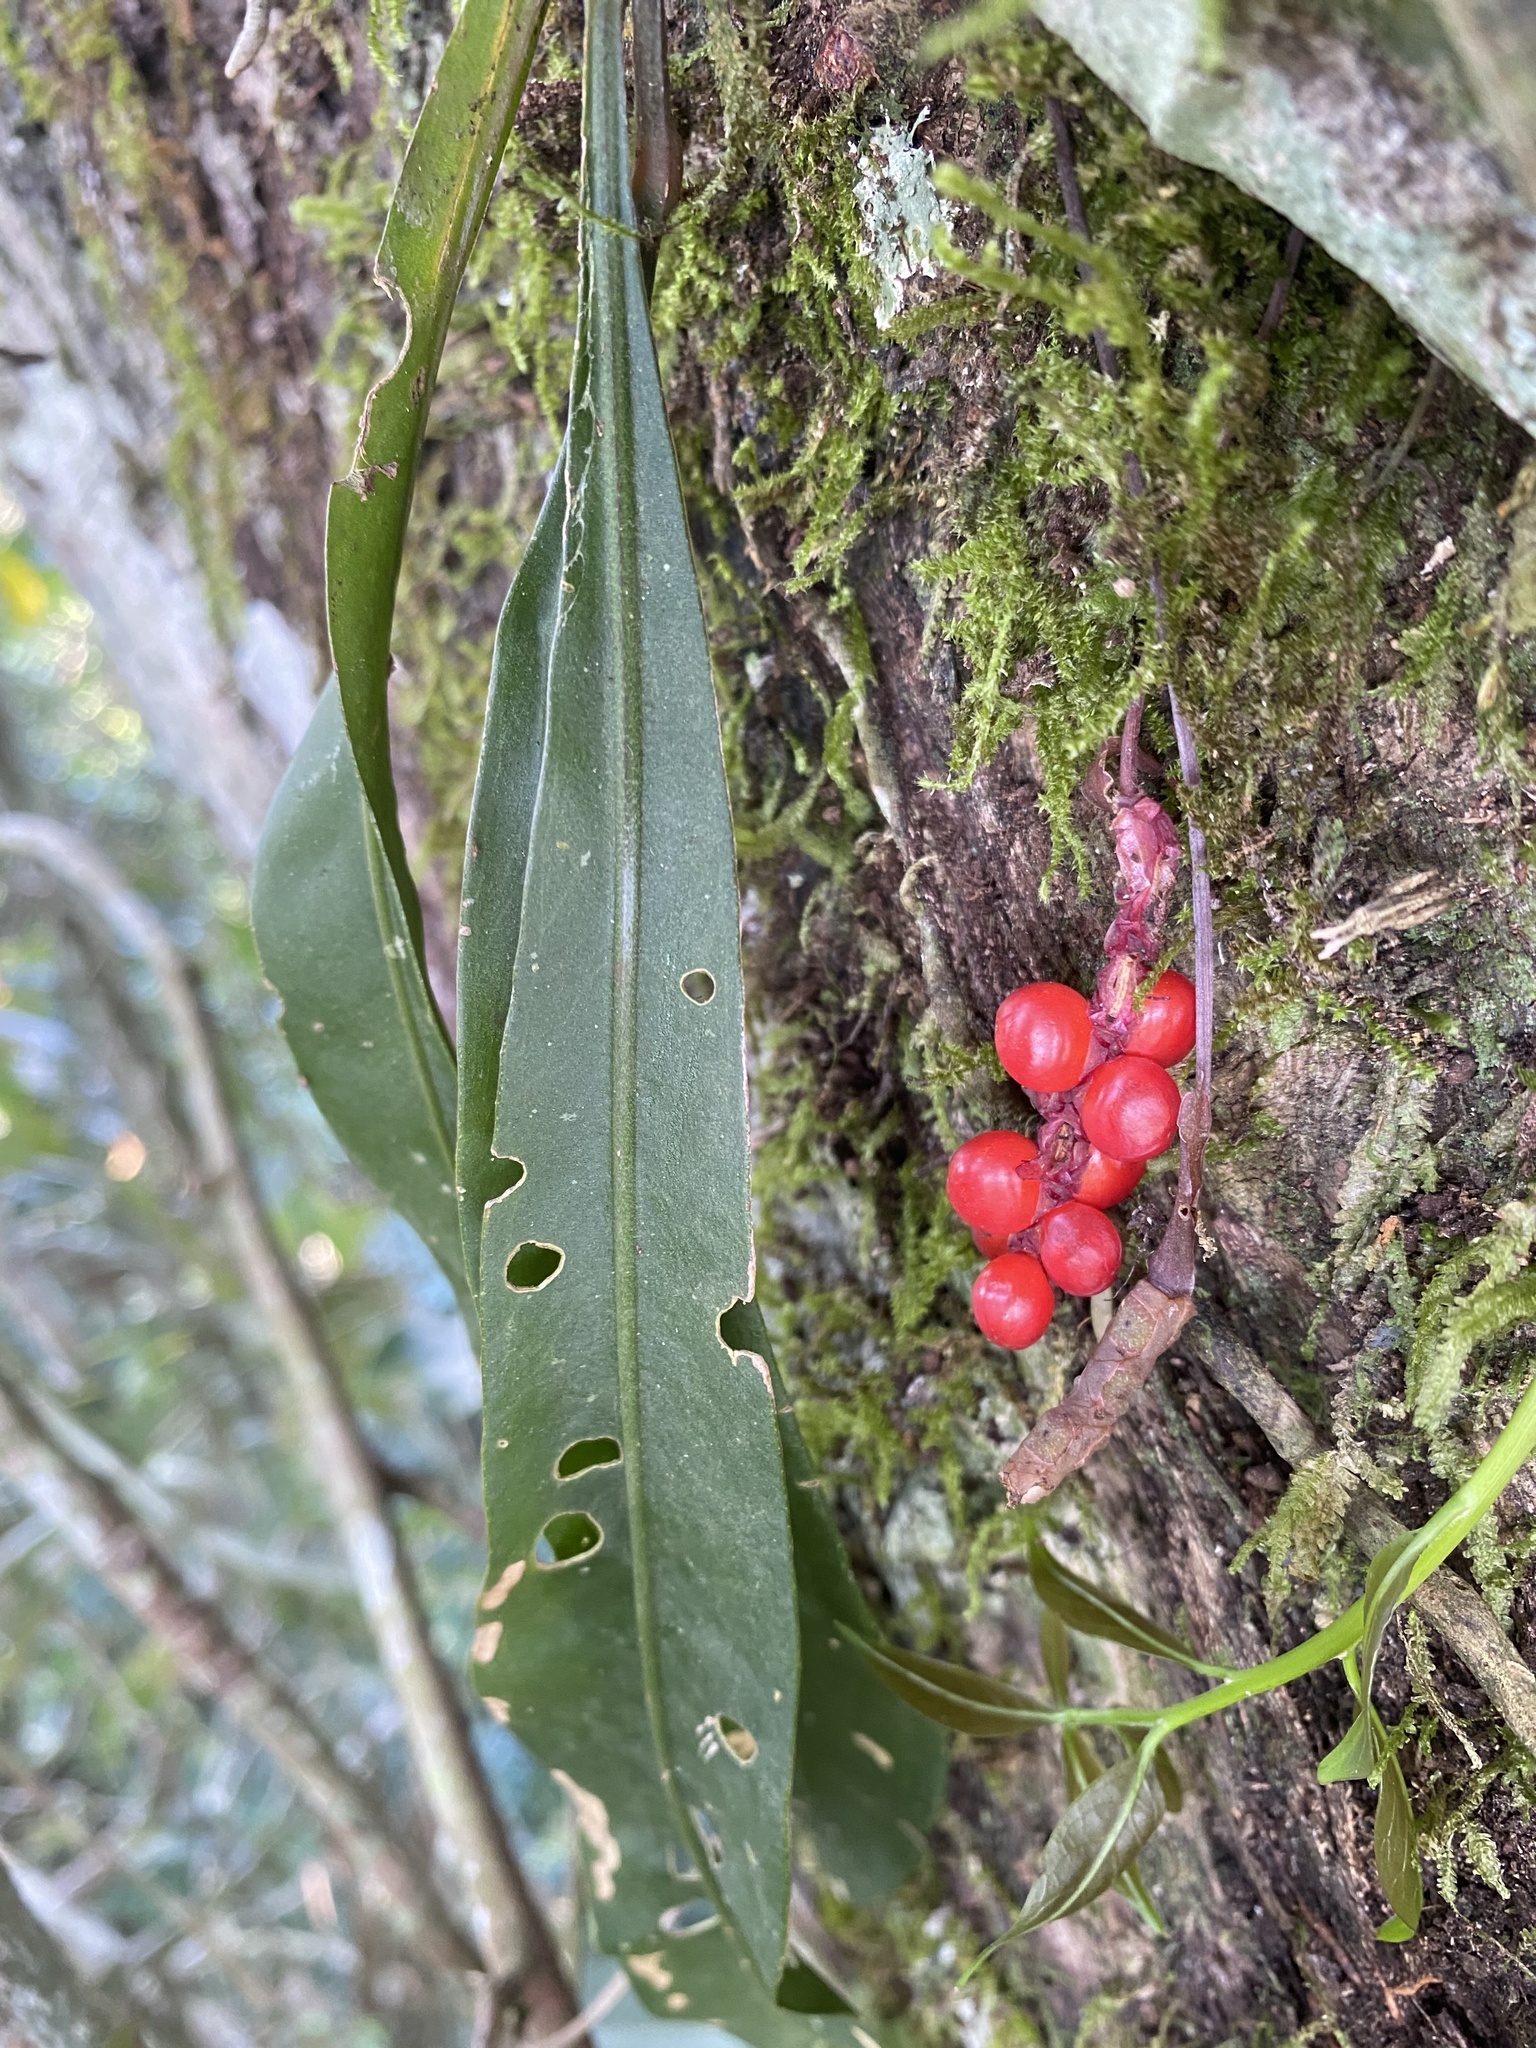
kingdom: Plantae
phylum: Tracheophyta
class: Liliopsida
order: Alismatales
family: Araceae
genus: Anthurium
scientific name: Anthurium gracile
